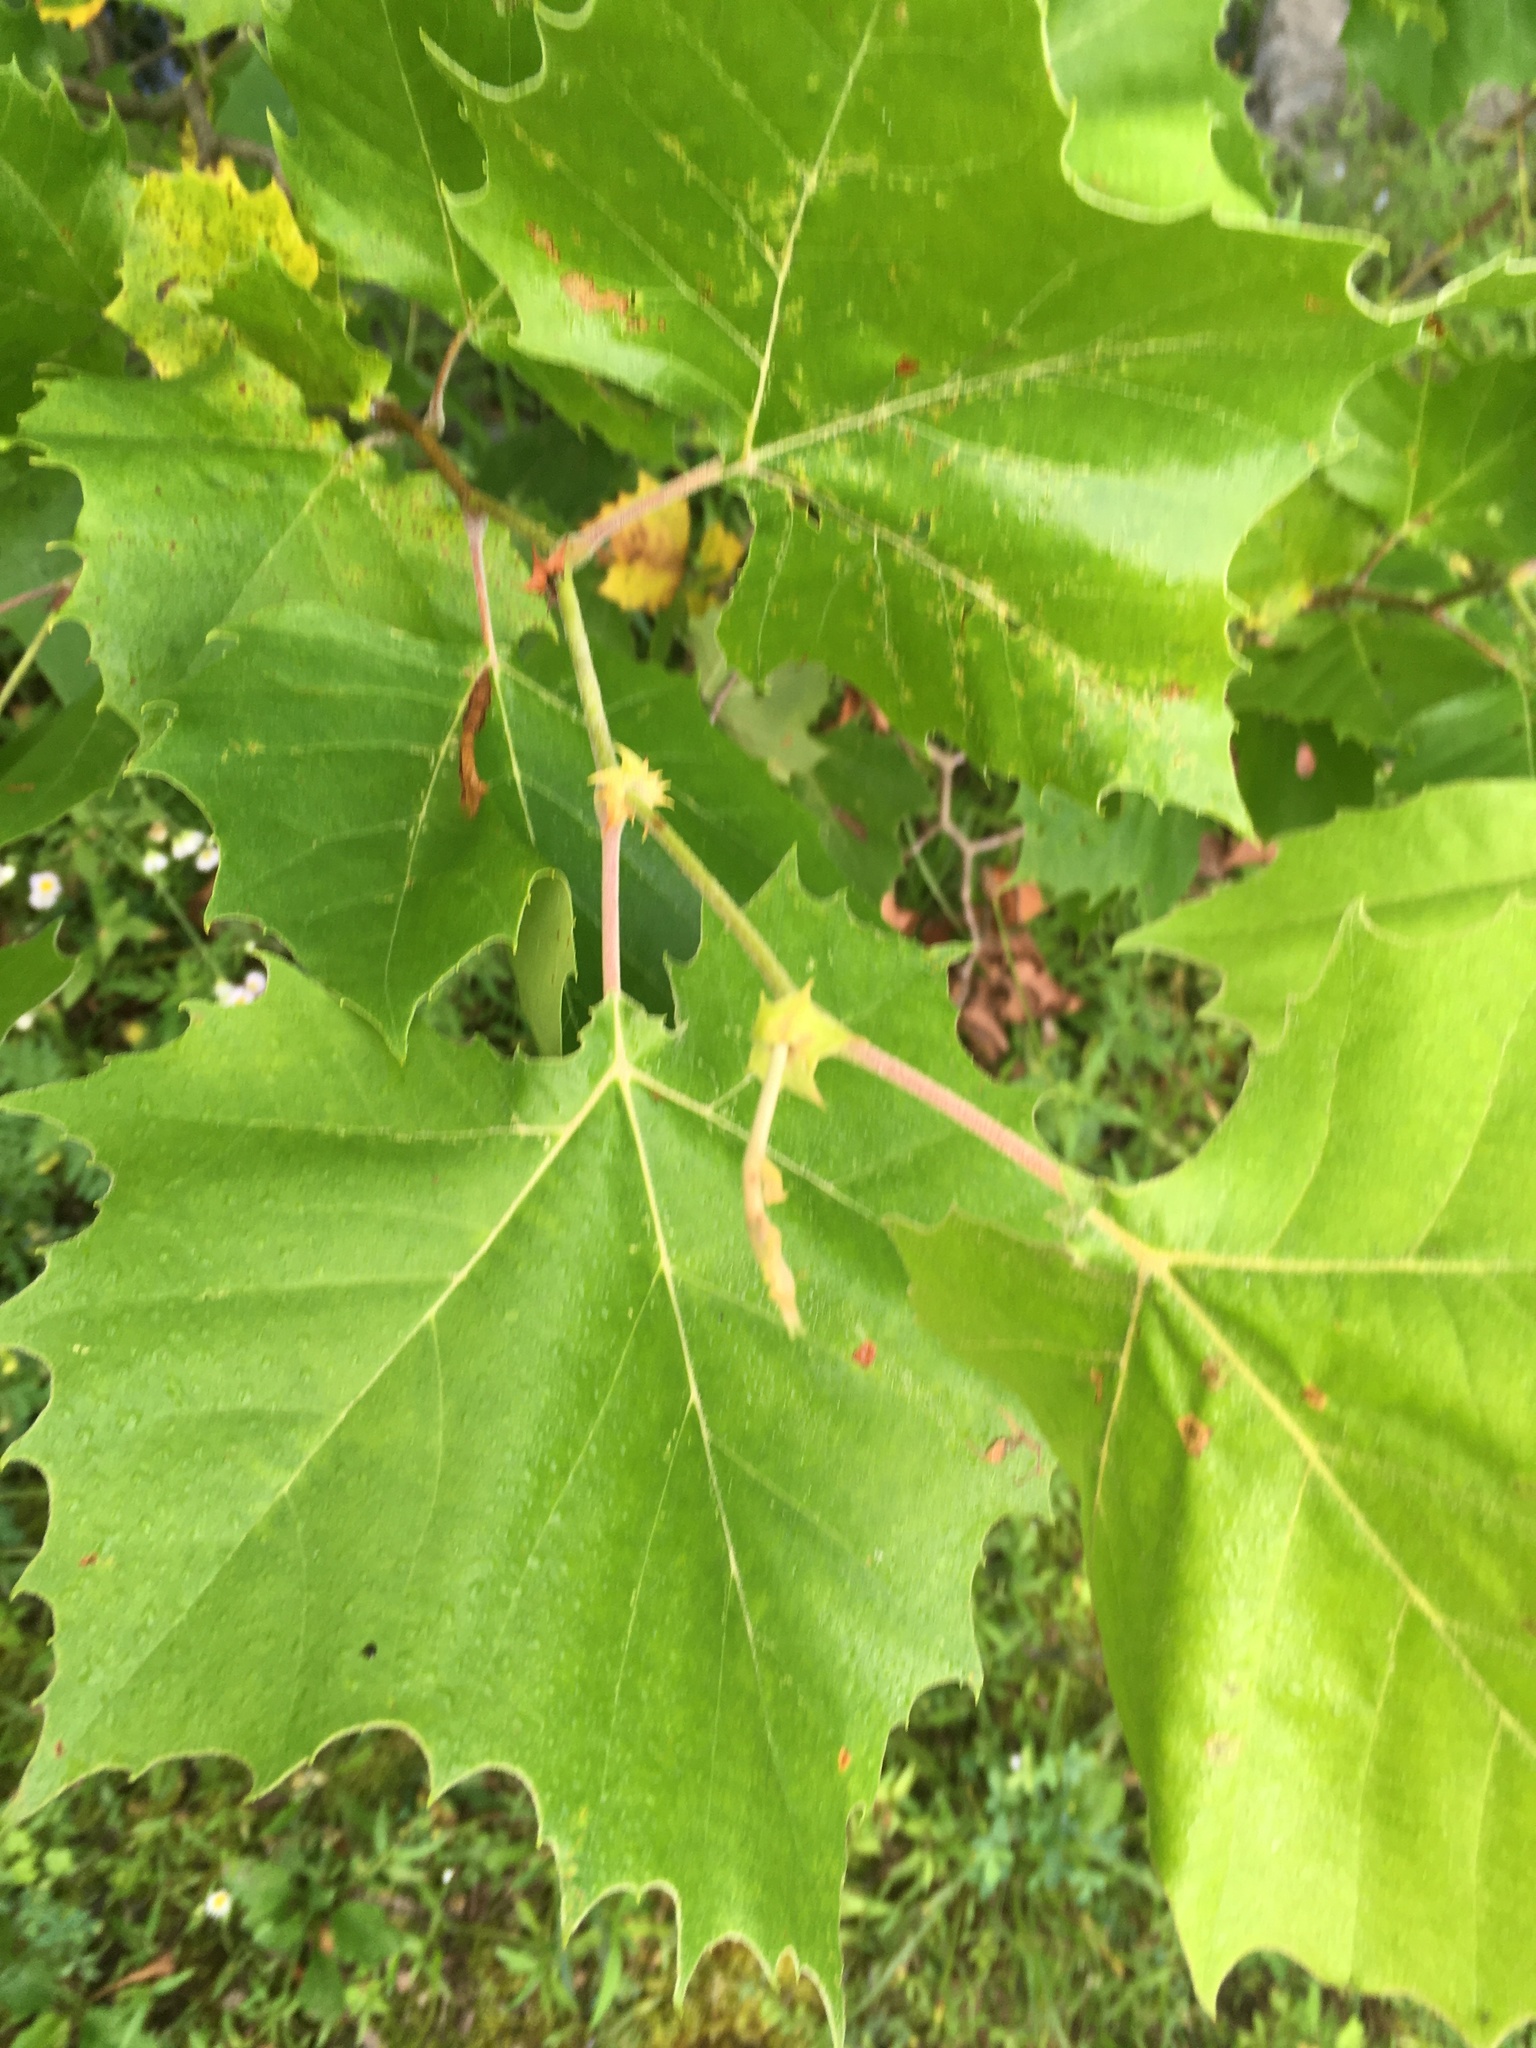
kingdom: Plantae
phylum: Tracheophyta
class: Magnoliopsida
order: Proteales
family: Platanaceae
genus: Platanus
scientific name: Platanus occidentalis
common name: American sycamore
